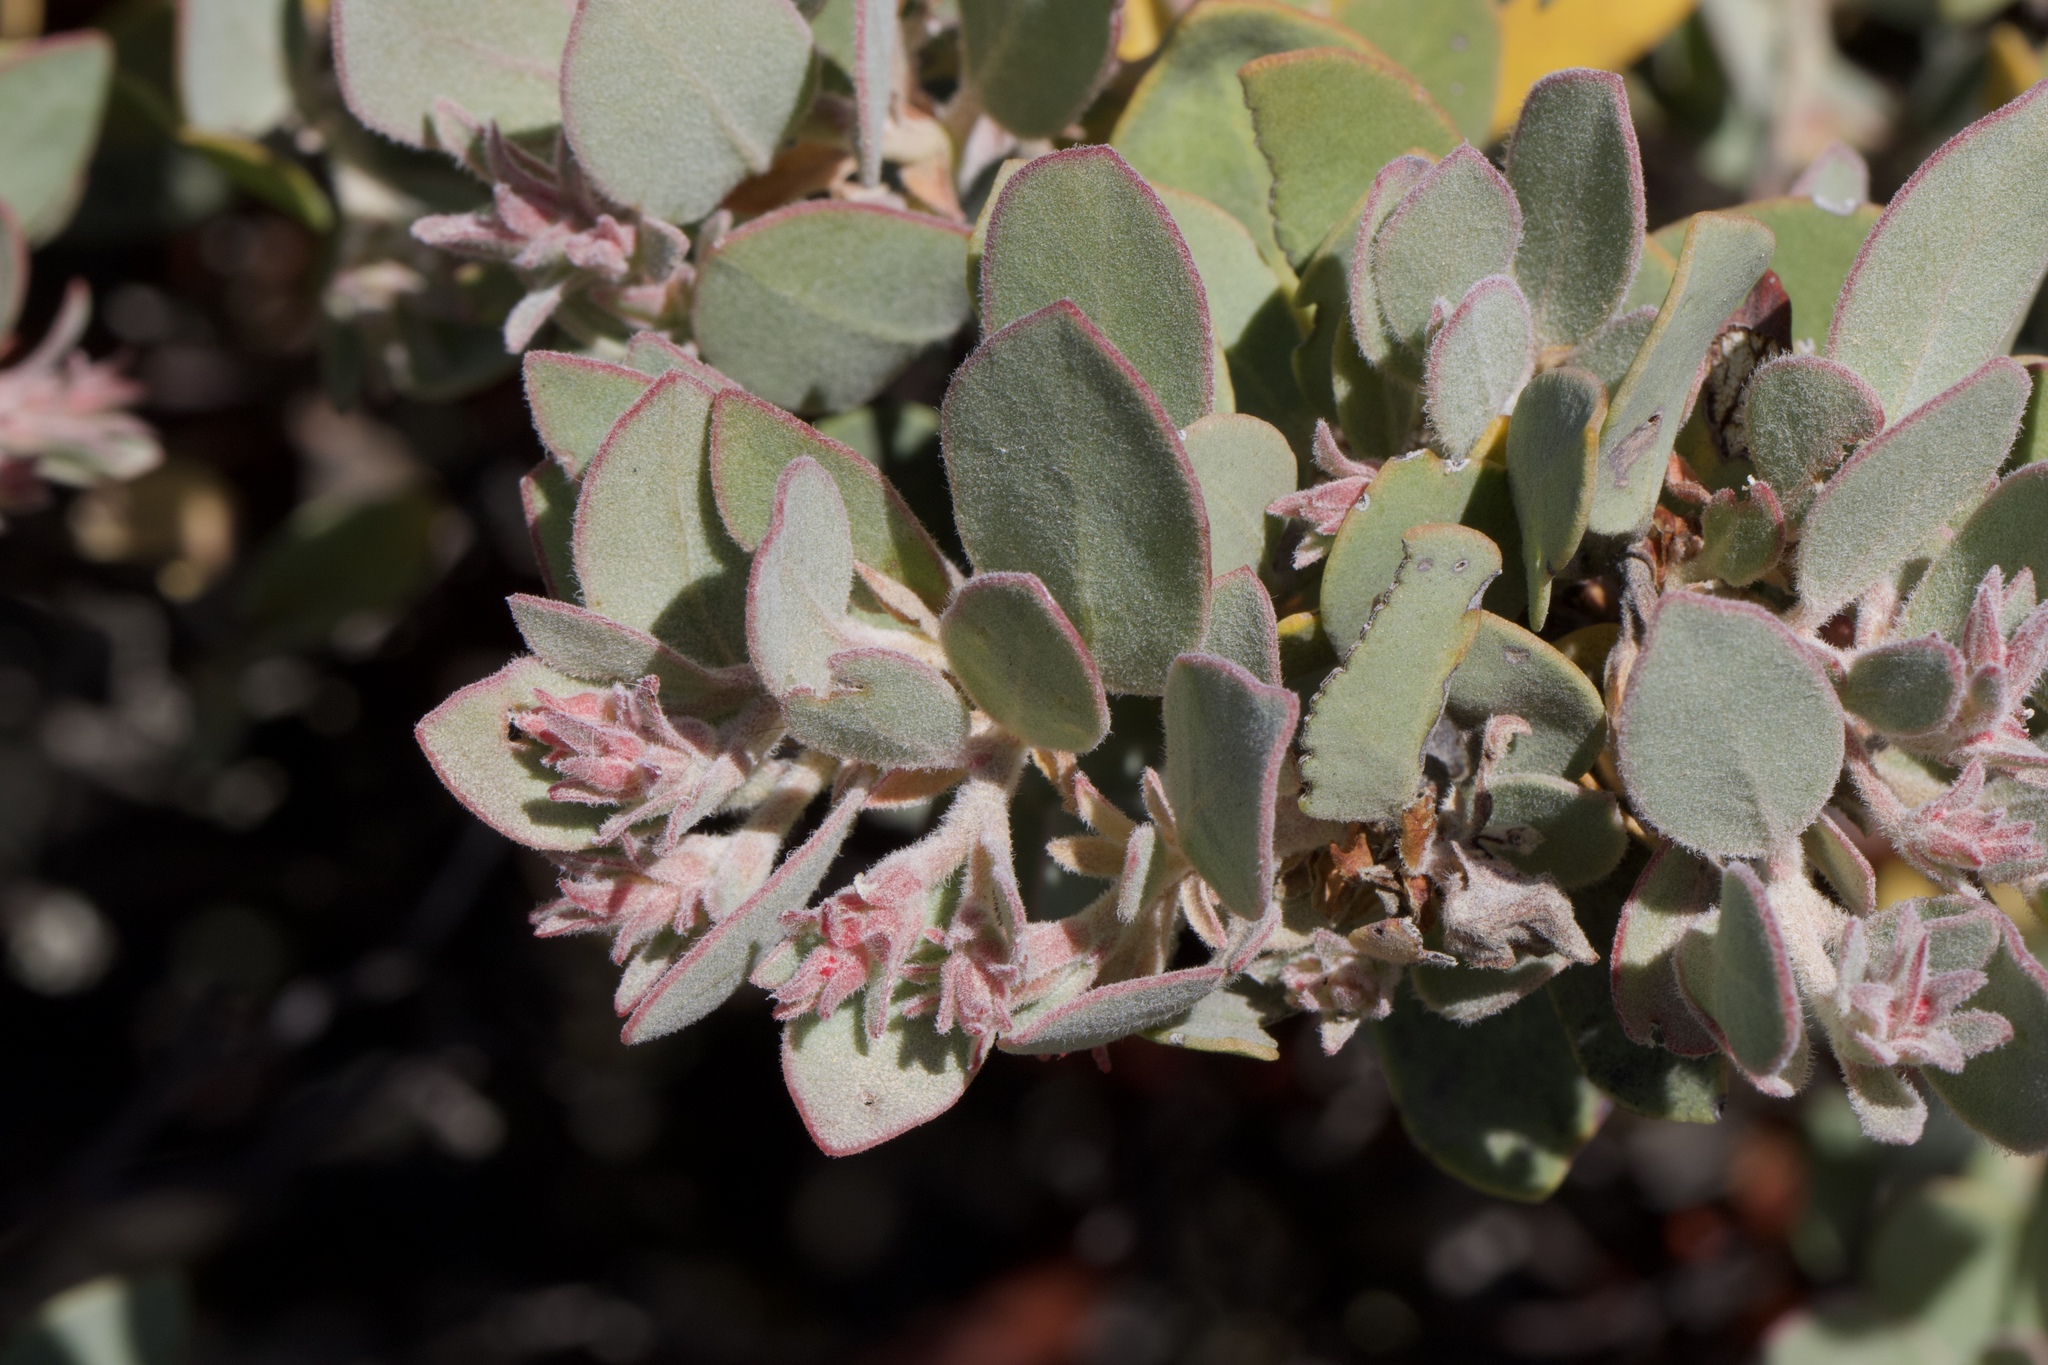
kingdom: Plantae
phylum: Tracheophyta
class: Magnoliopsida
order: Ericales
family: Ericaceae
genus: Arctostaphylos
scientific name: Arctostaphylos canescens
